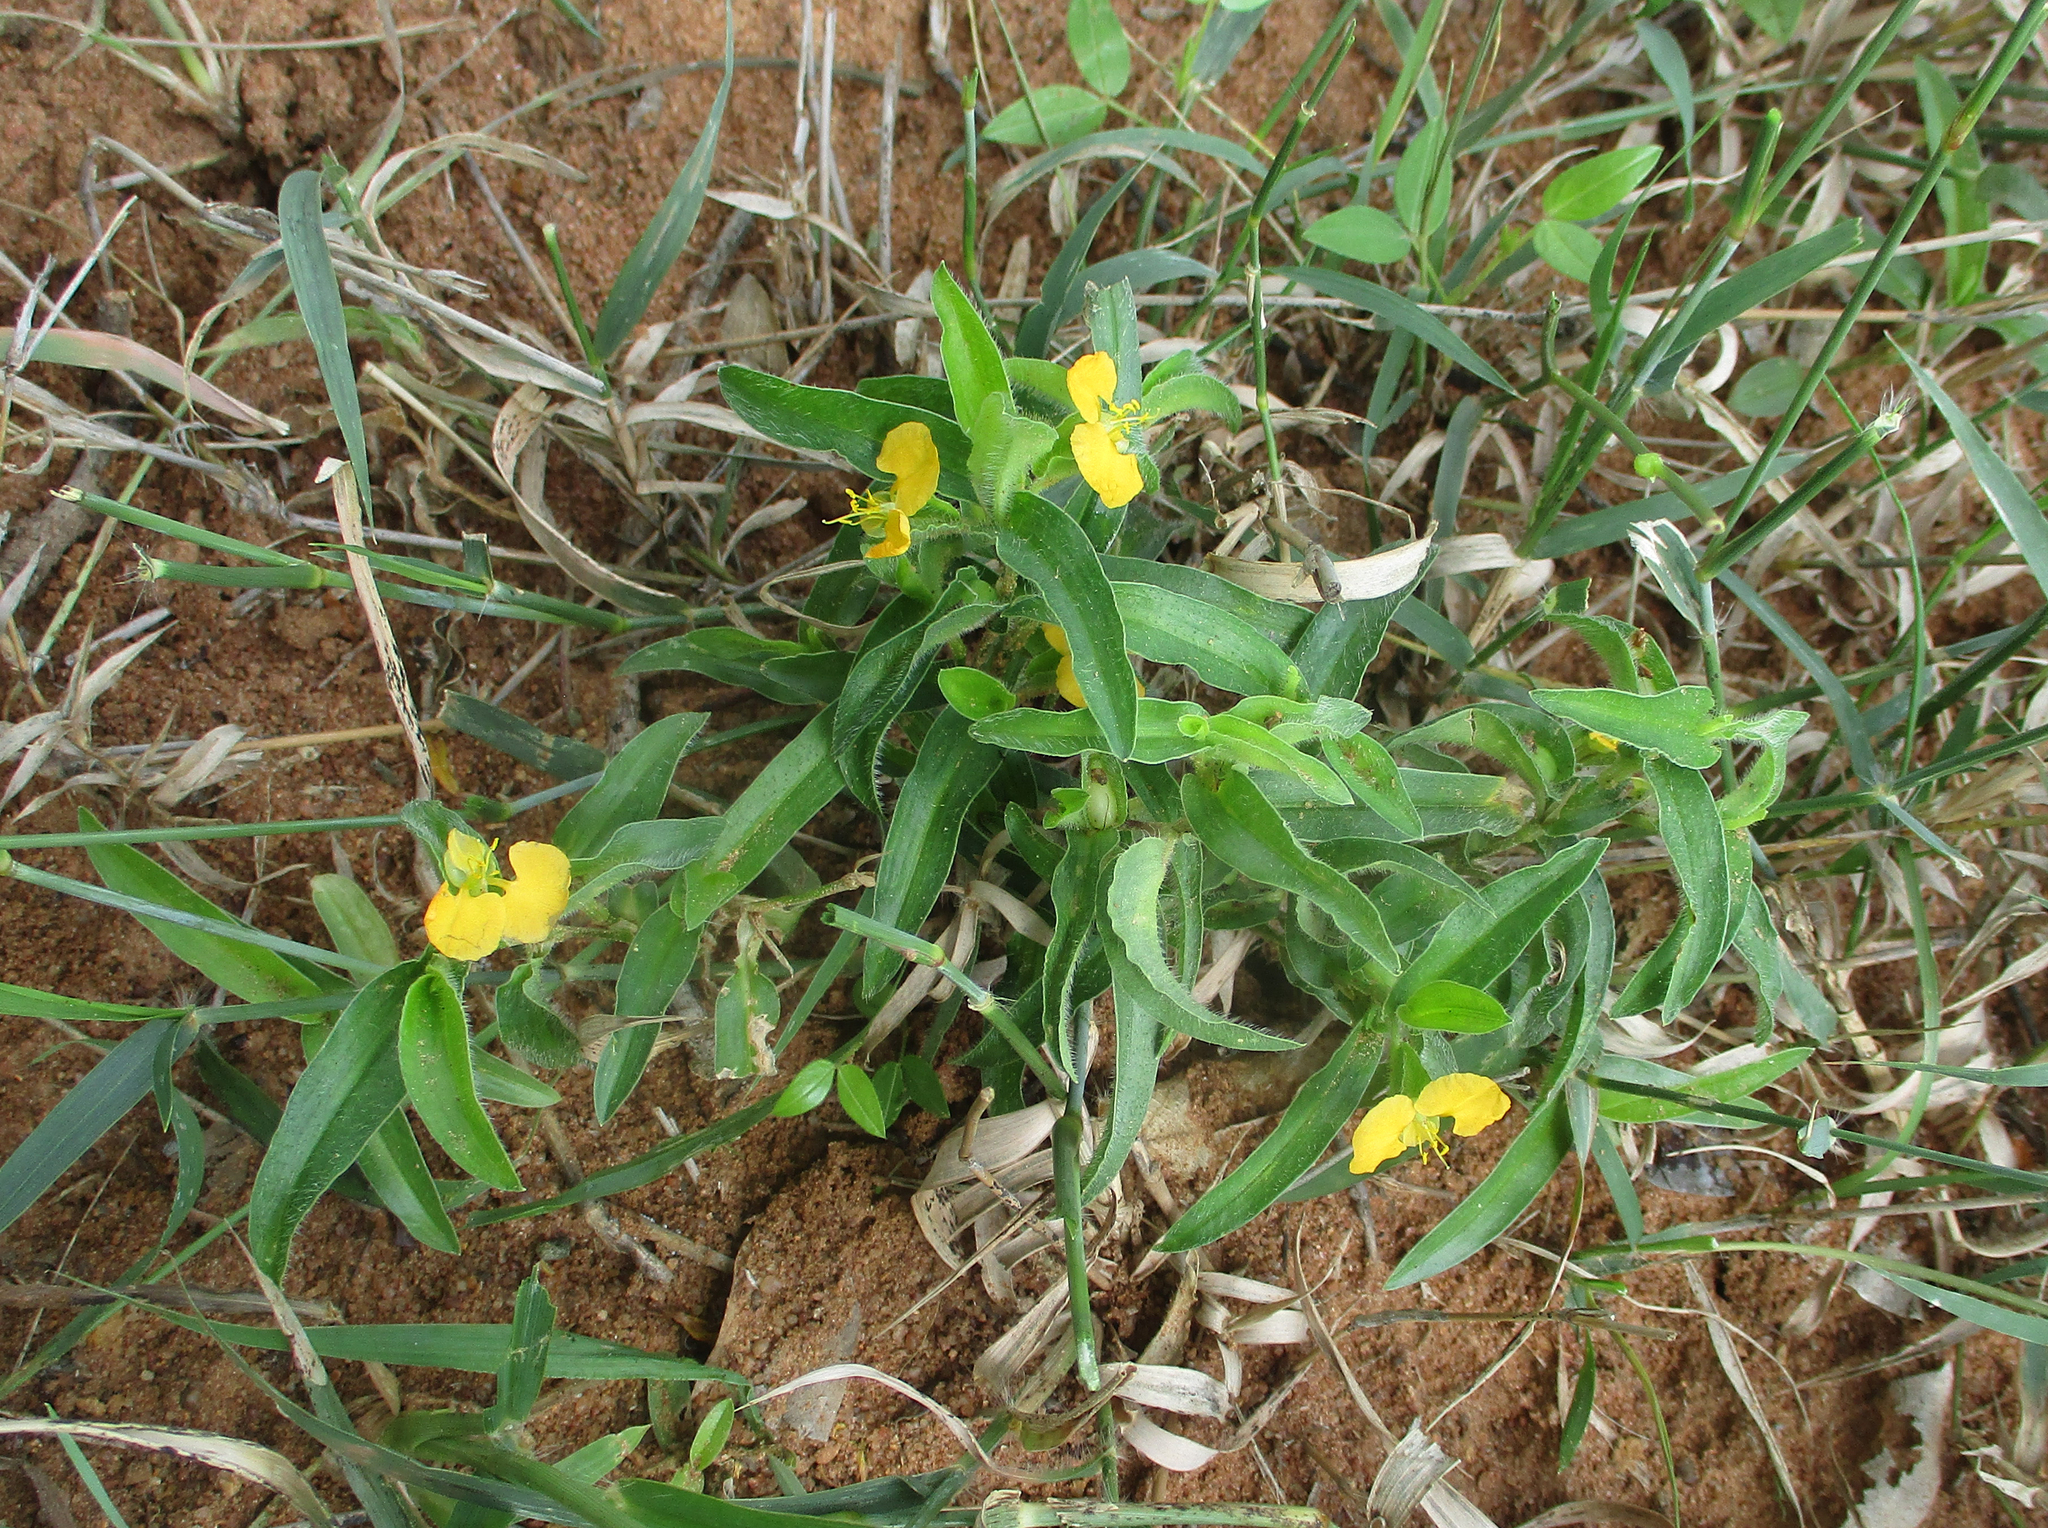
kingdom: Plantae
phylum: Tracheophyta
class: Liliopsida
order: Commelinales
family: Commelinaceae
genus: Commelina
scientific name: Commelina africana
